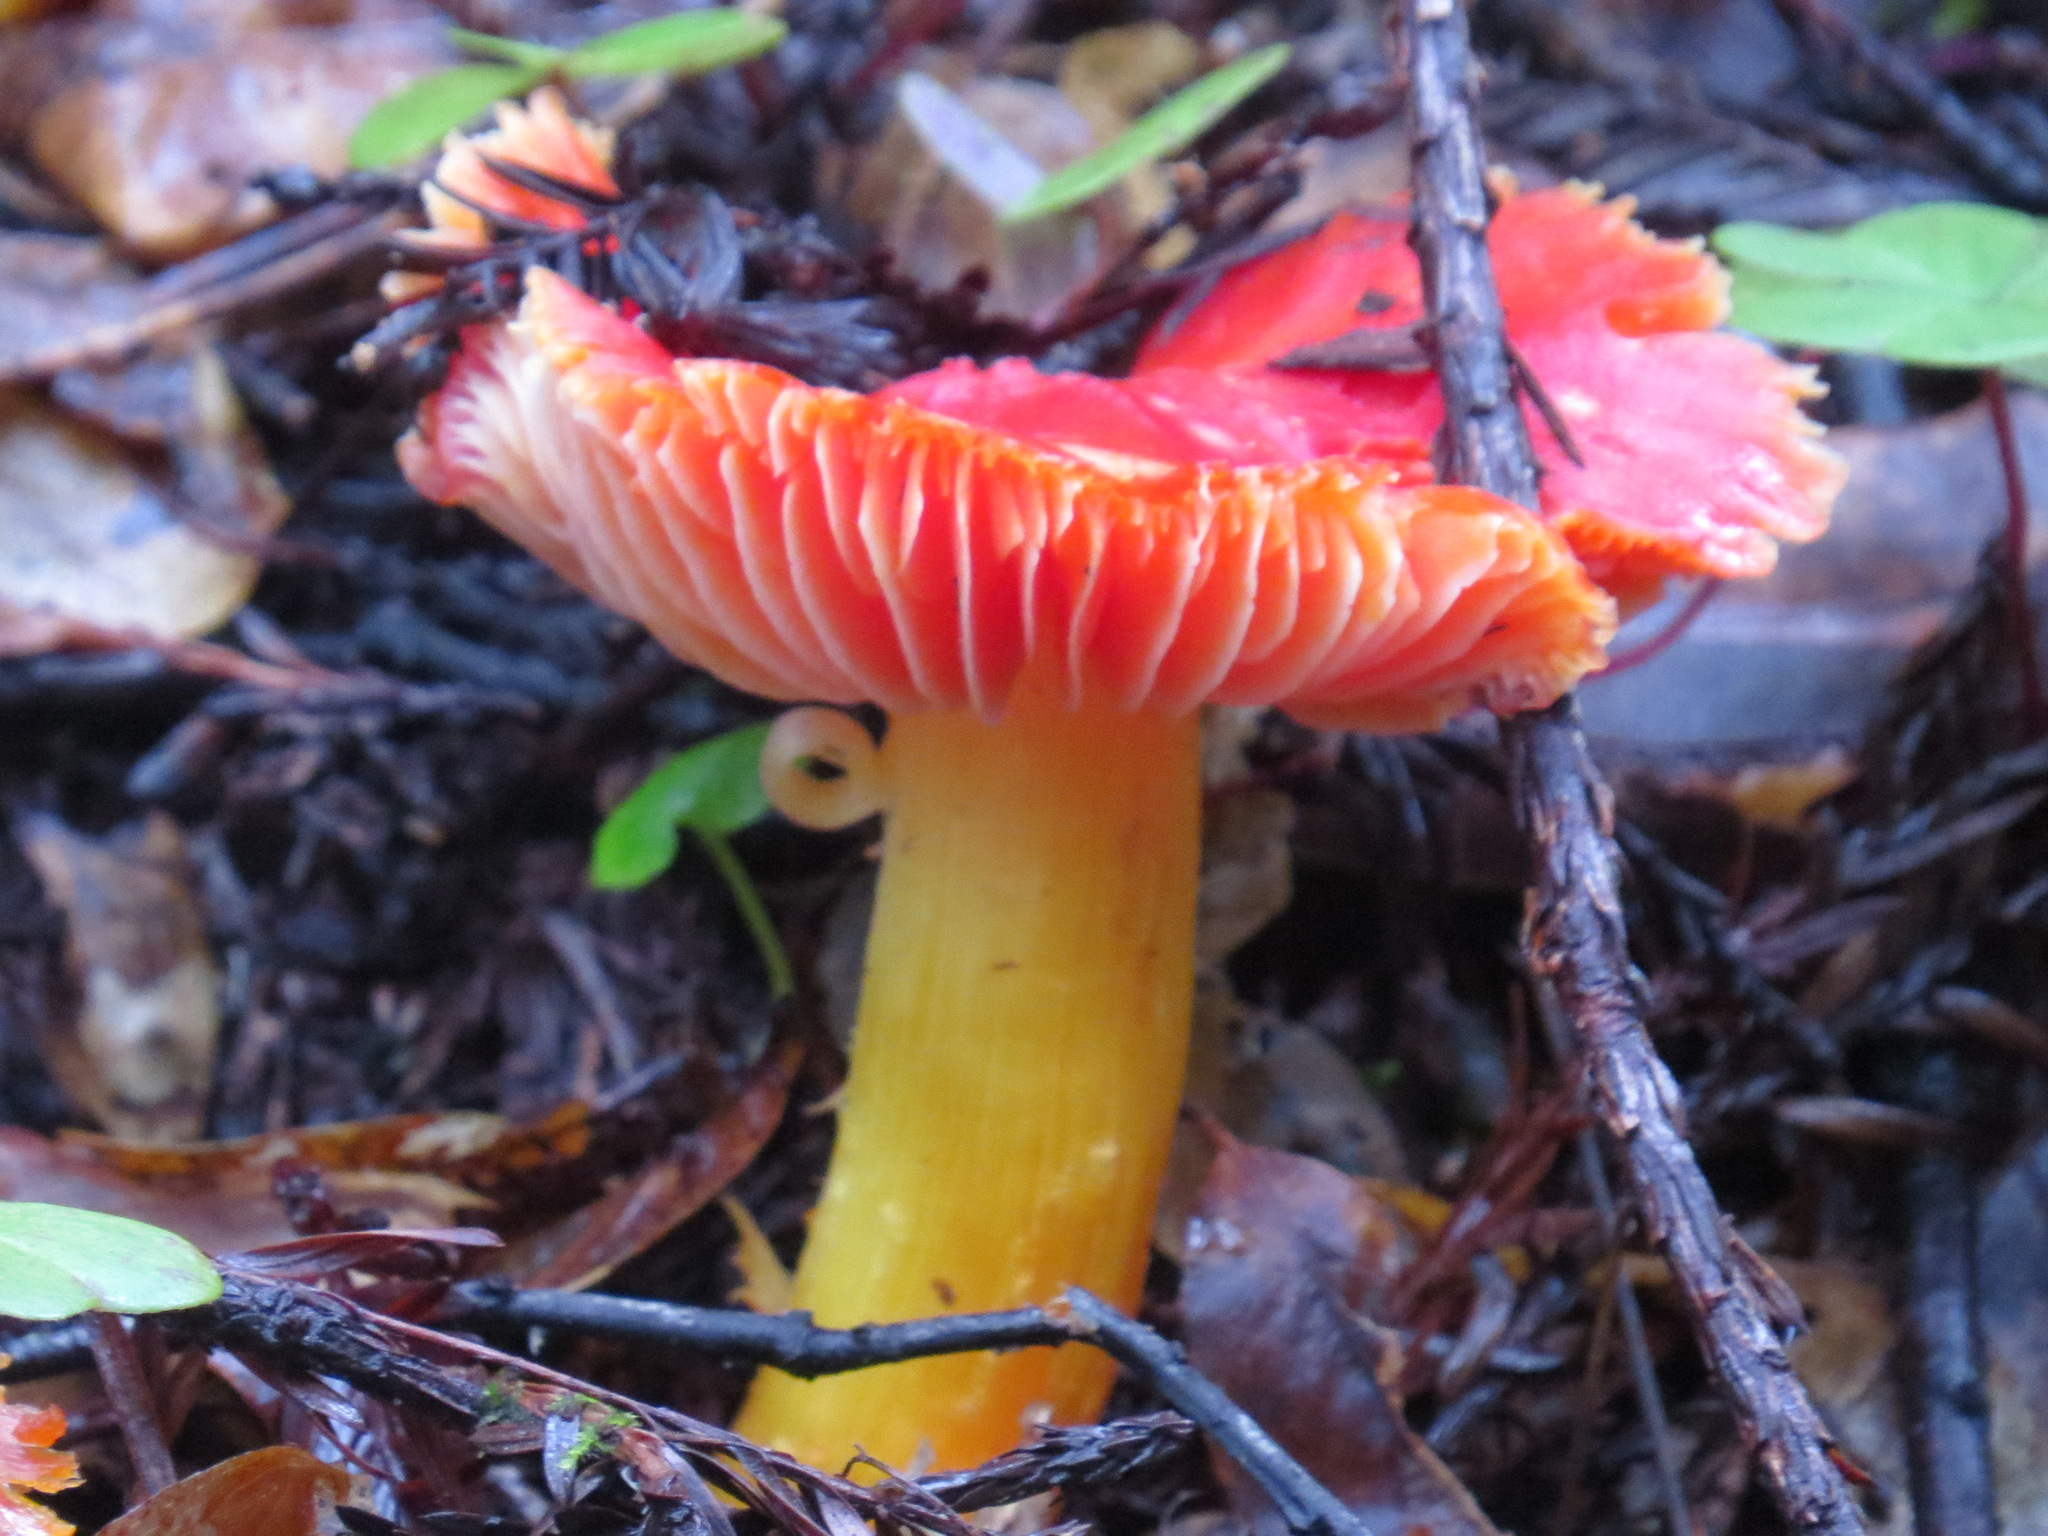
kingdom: Fungi
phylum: Basidiomycota
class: Agaricomycetes
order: Agaricales
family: Hygrophoraceae
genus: Hygrocybe
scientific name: Hygrocybe laetissima
